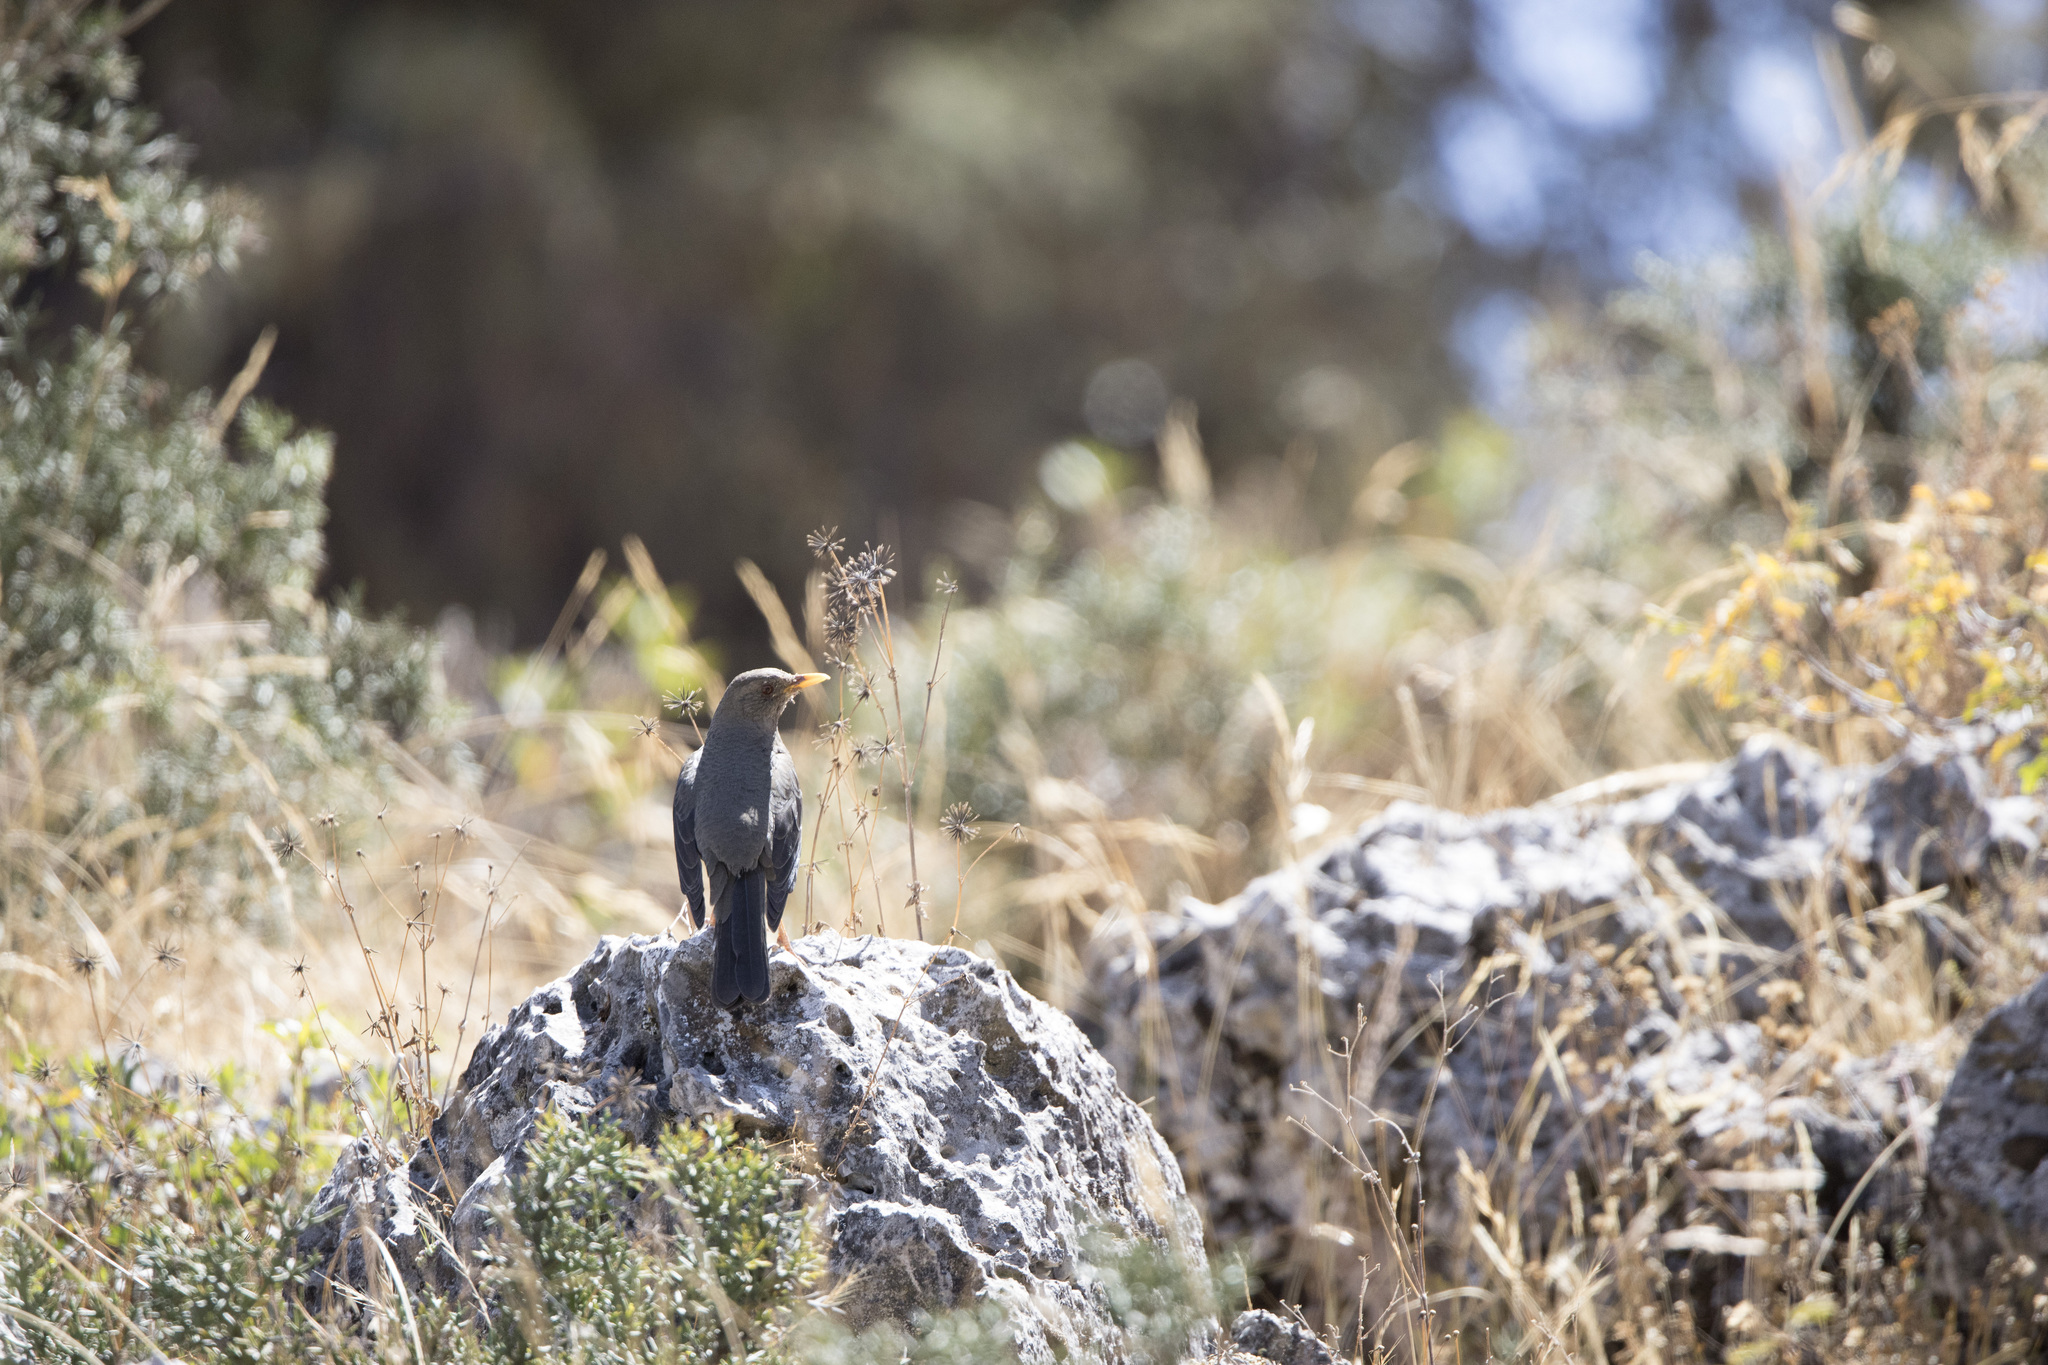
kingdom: Animalia
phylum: Chordata
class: Aves
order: Passeriformes
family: Turdidae
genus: Turdus
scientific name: Turdus chiguanco
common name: Chiguanco thrush
